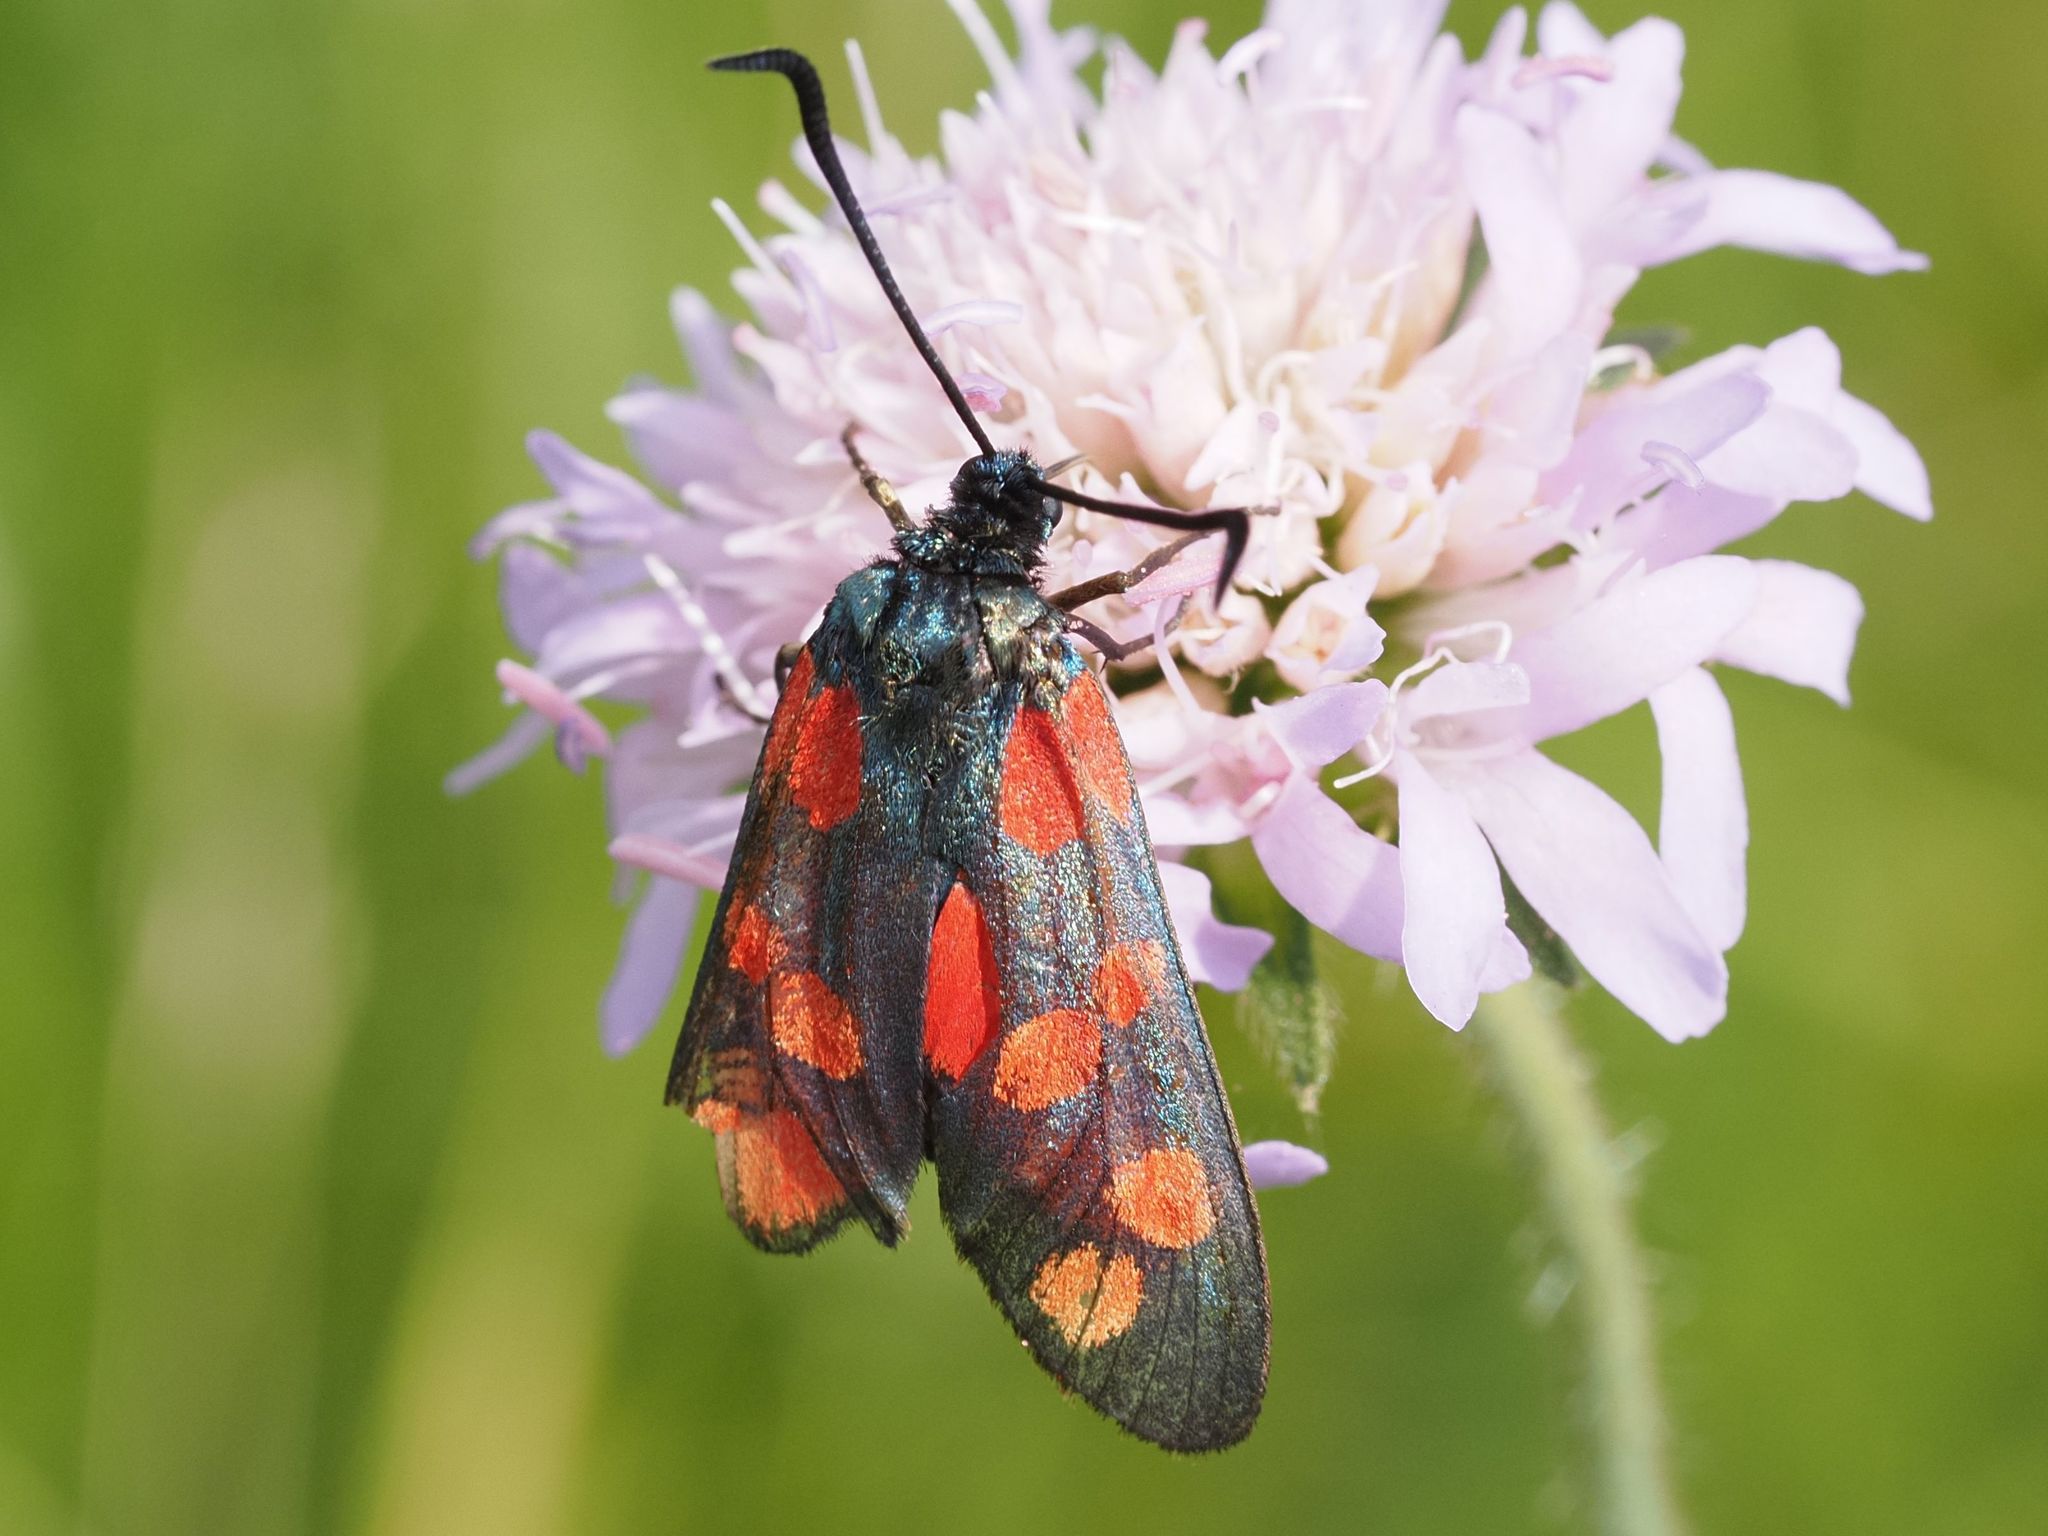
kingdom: Animalia
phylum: Arthropoda
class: Insecta
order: Lepidoptera
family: Zygaenidae
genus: Zygaena
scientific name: Zygaena filipendulae
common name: Six-spot burnet
